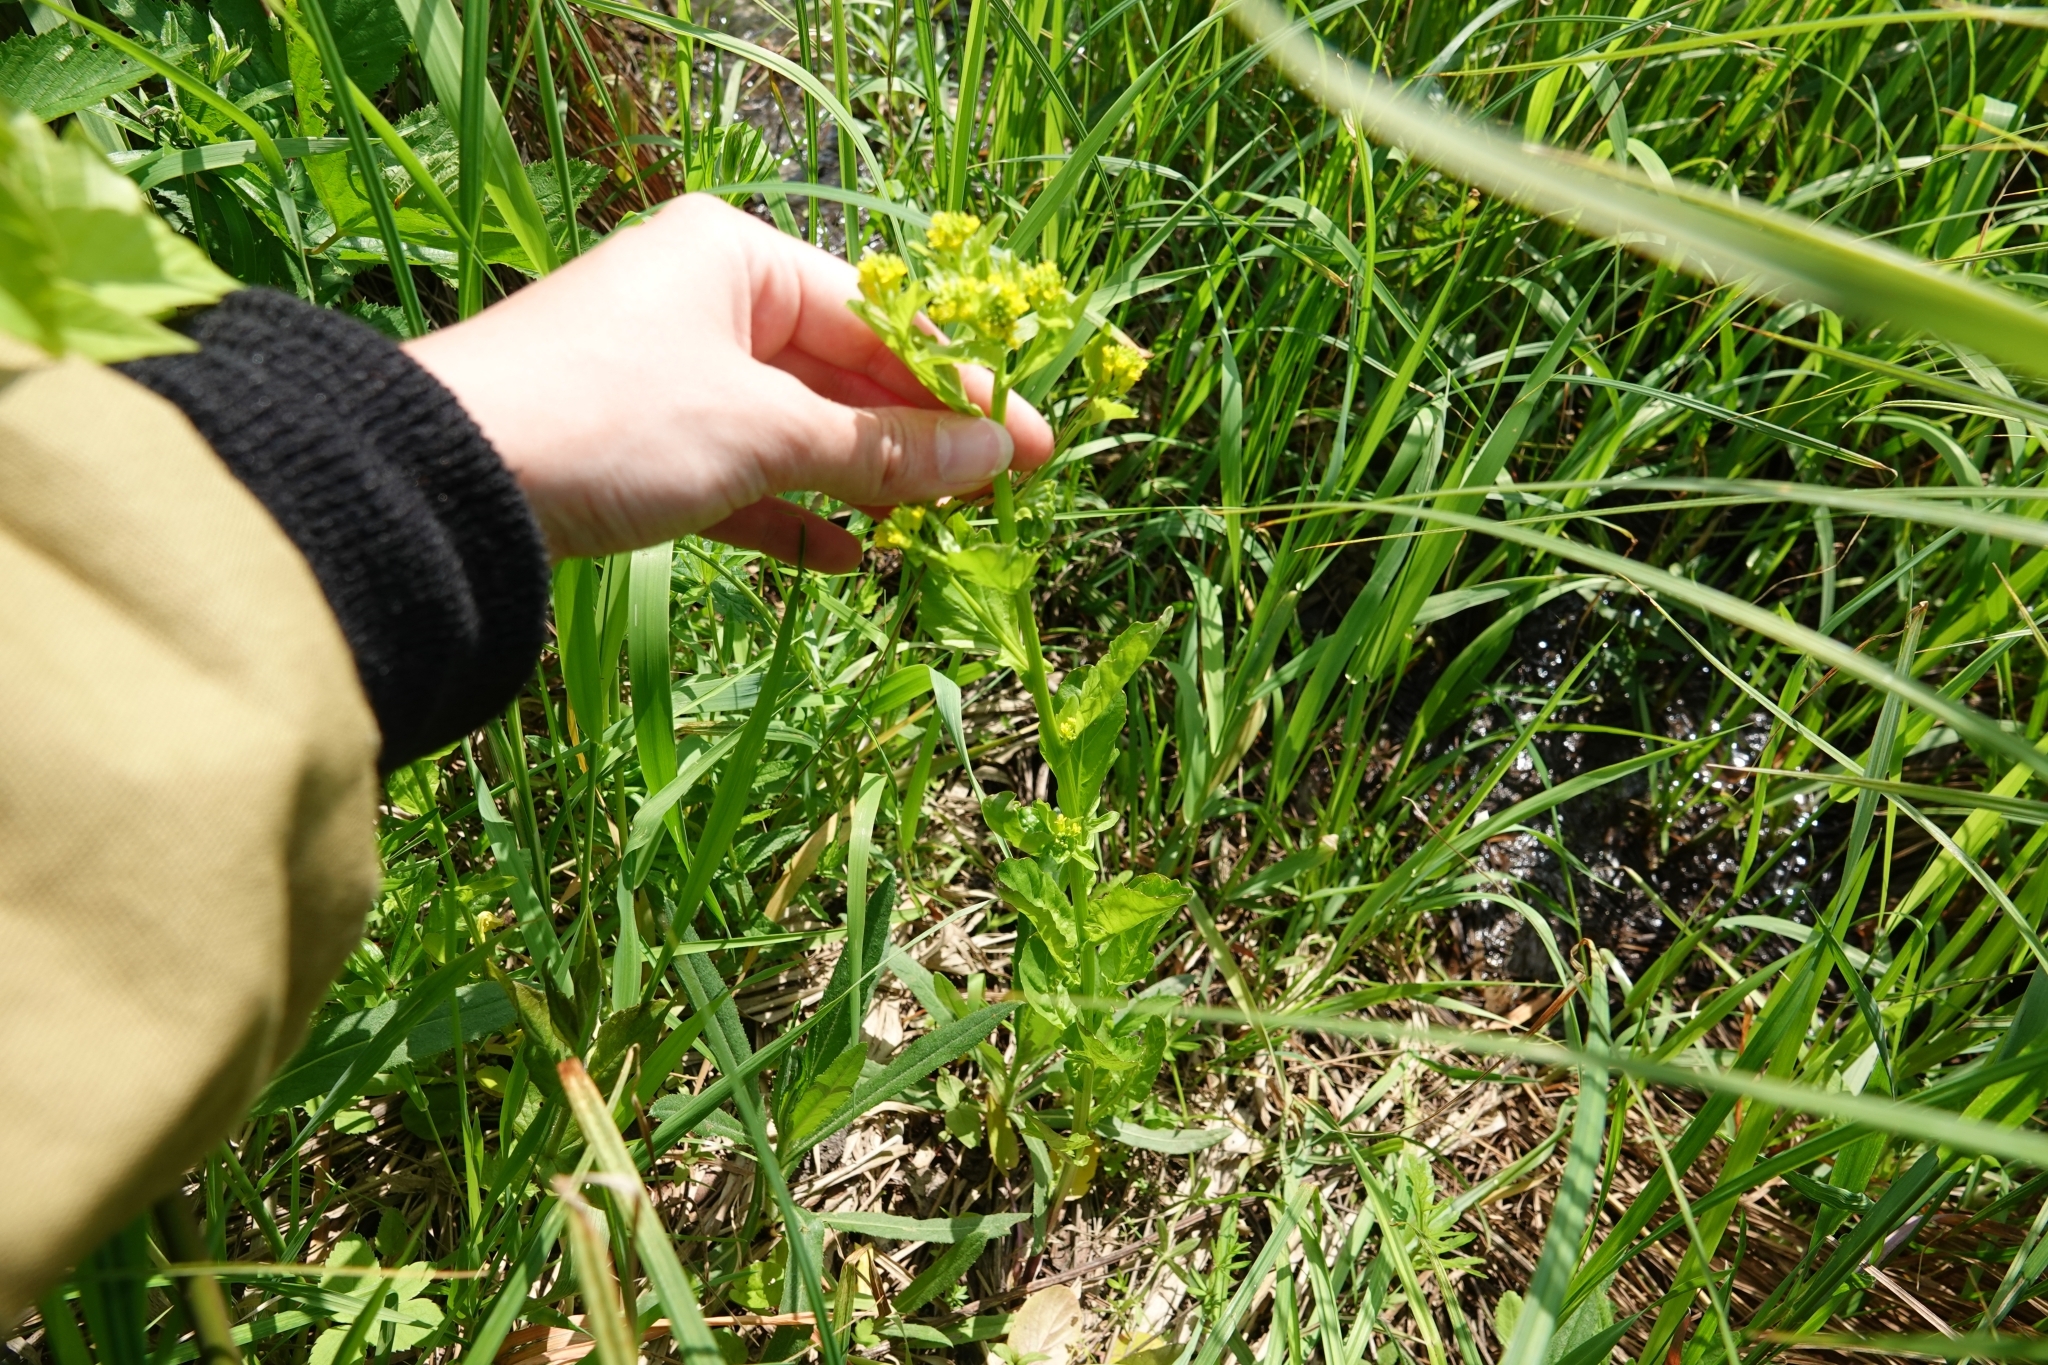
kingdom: Plantae
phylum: Tracheophyta
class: Magnoliopsida
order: Brassicales
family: Brassicaceae
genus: Barbarea
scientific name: Barbarea stricta
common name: Small-flowered winter-cress
